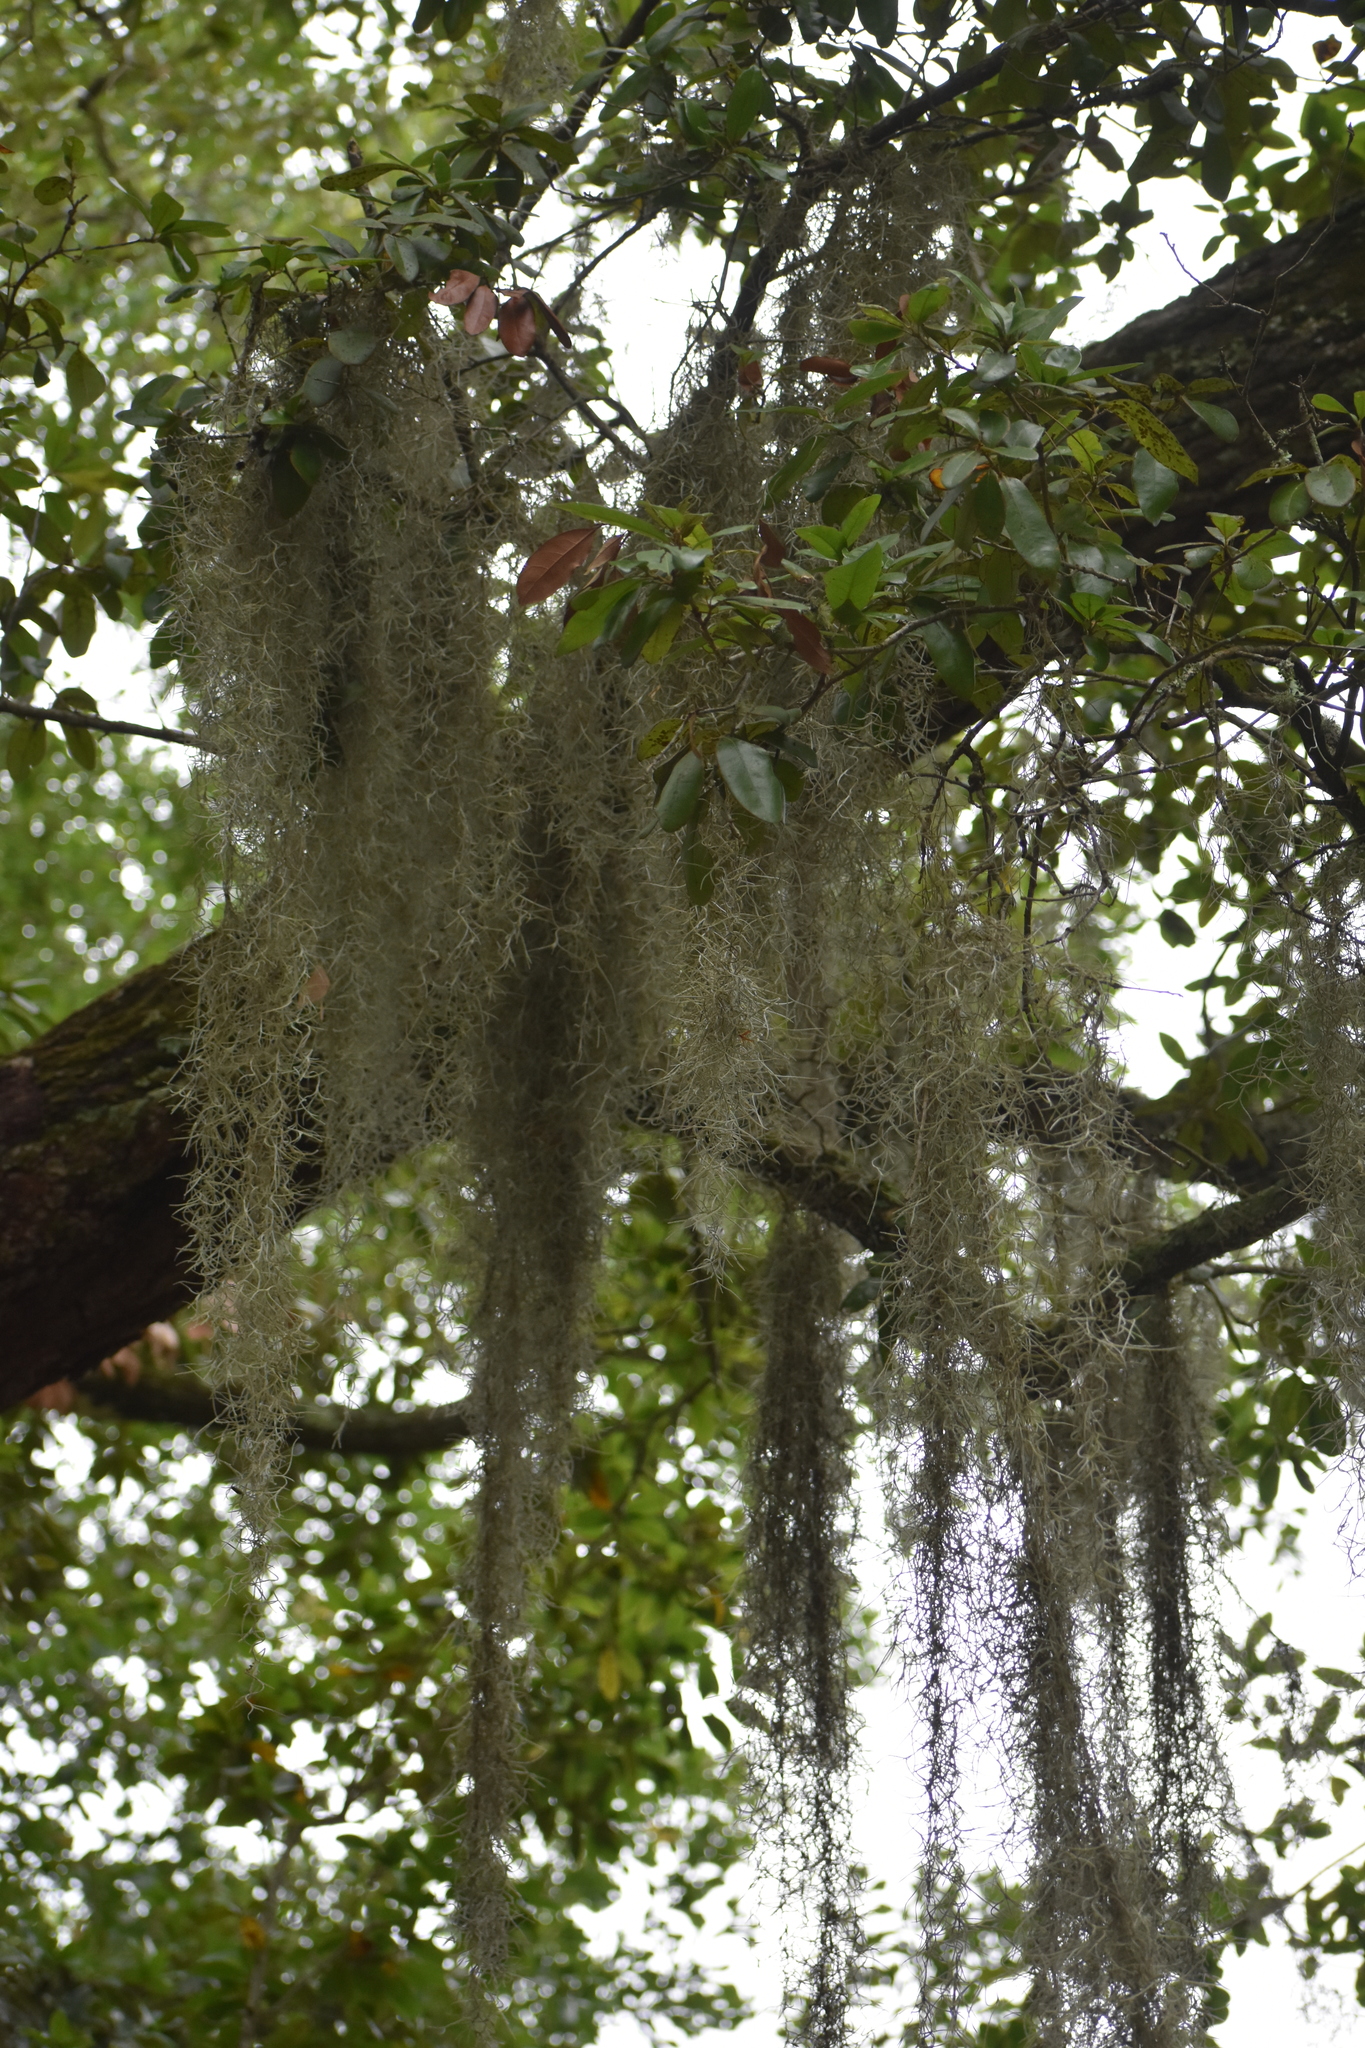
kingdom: Plantae
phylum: Tracheophyta
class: Liliopsida
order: Poales
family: Bromeliaceae
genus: Tillandsia
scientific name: Tillandsia usneoides
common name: Spanish moss
